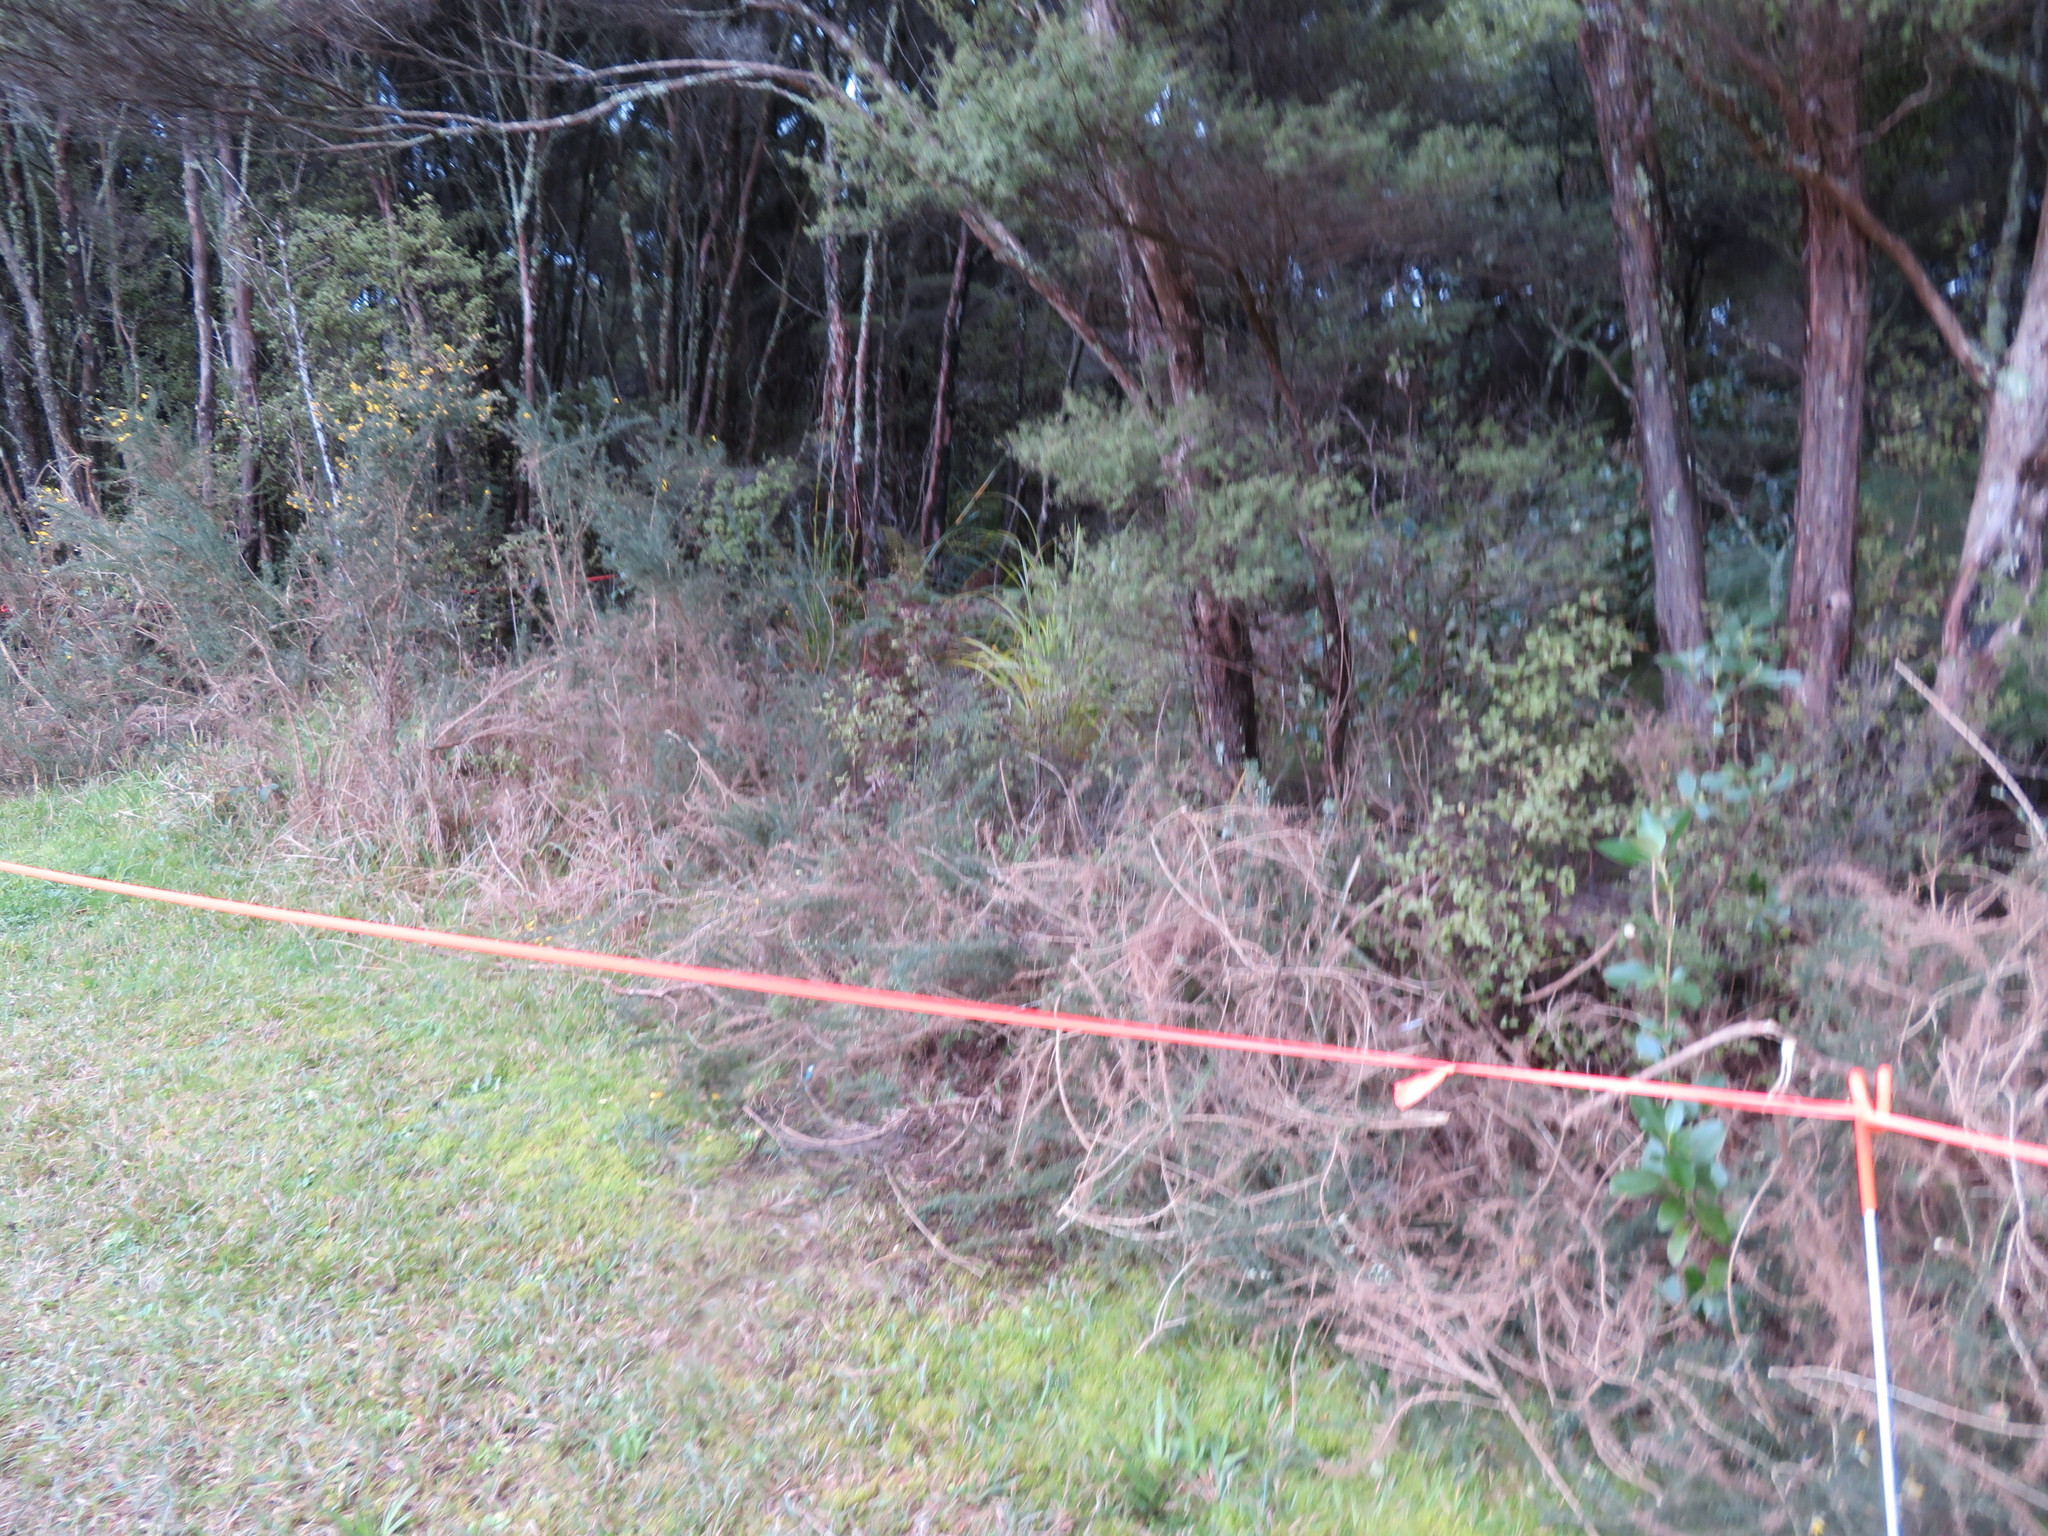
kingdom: Plantae
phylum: Tracheophyta
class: Magnoliopsida
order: Fabales
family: Fabaceae
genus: Ulex
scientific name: Ulex europaeus
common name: Common gorse
